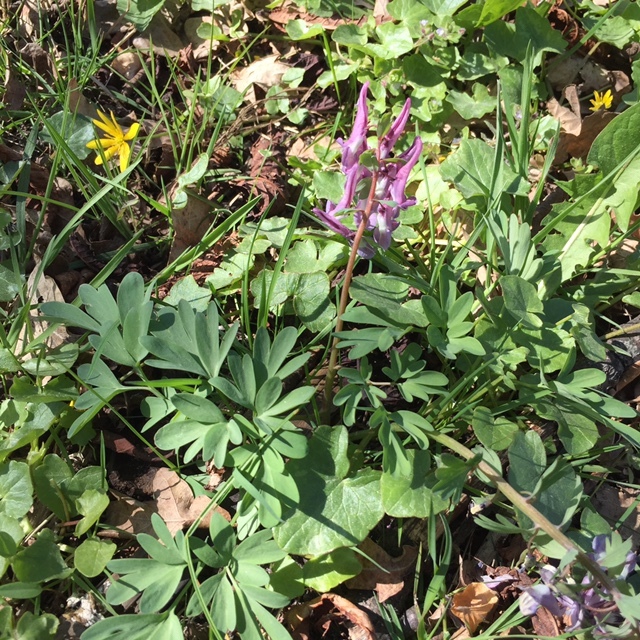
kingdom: Plantae
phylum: Tracheophyta
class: Magnoliopsida
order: Ranunculales
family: Papaveraceae
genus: Corydalis
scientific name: Corydalis solida
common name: Bird-in-a-bush
